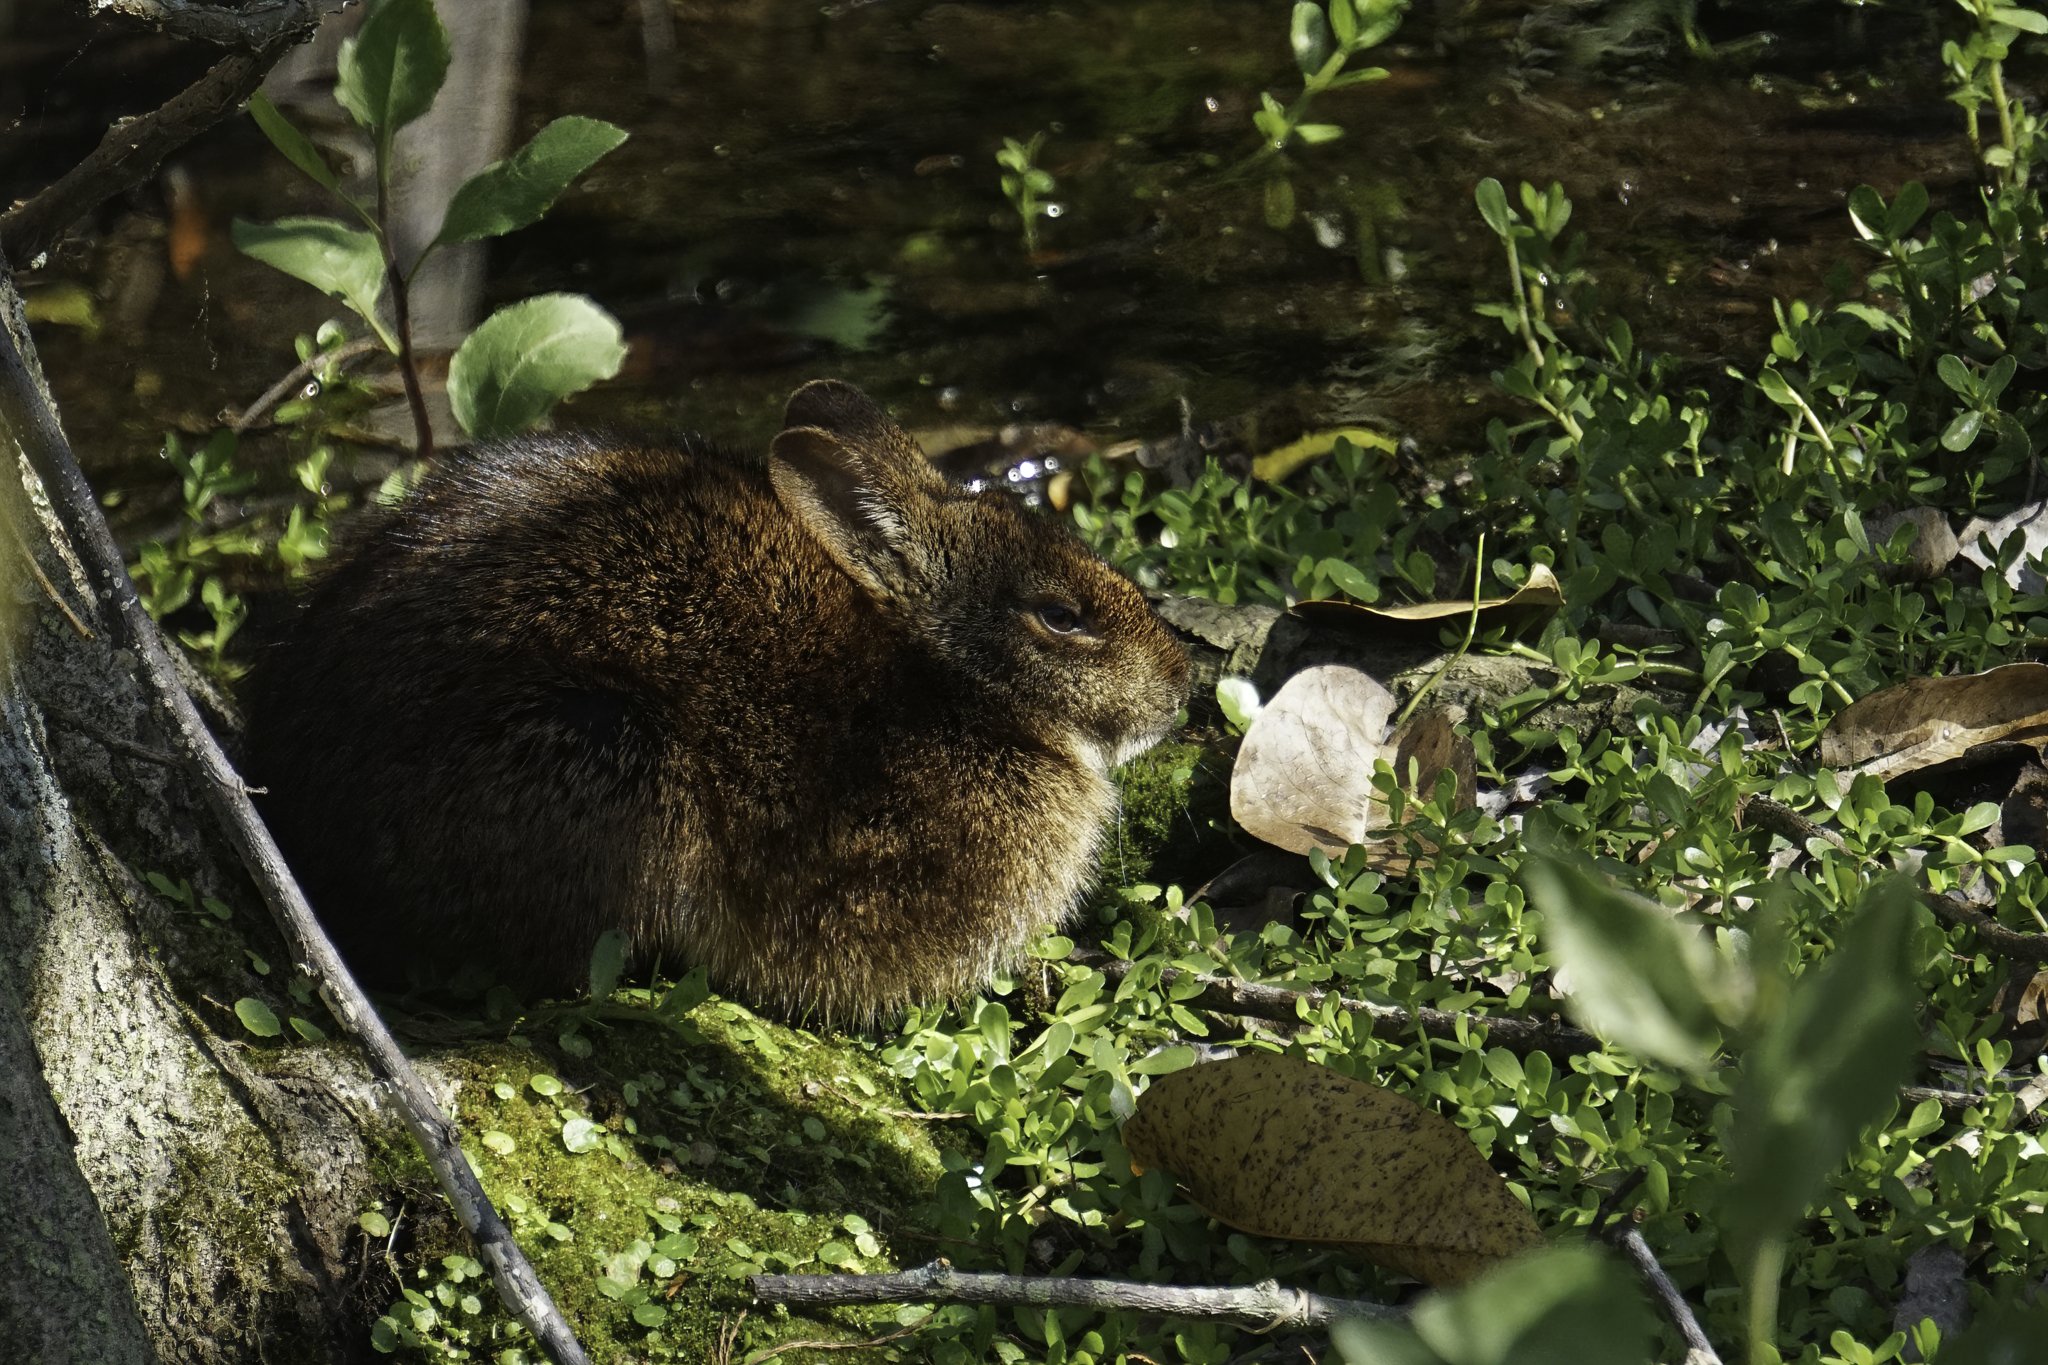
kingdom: Animalia
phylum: Chordata
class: Mammalia
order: Lagomorpha
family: Leporidae
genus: Sylvilagus
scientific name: Sylvilagus palustris
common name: Marsh rabbit
